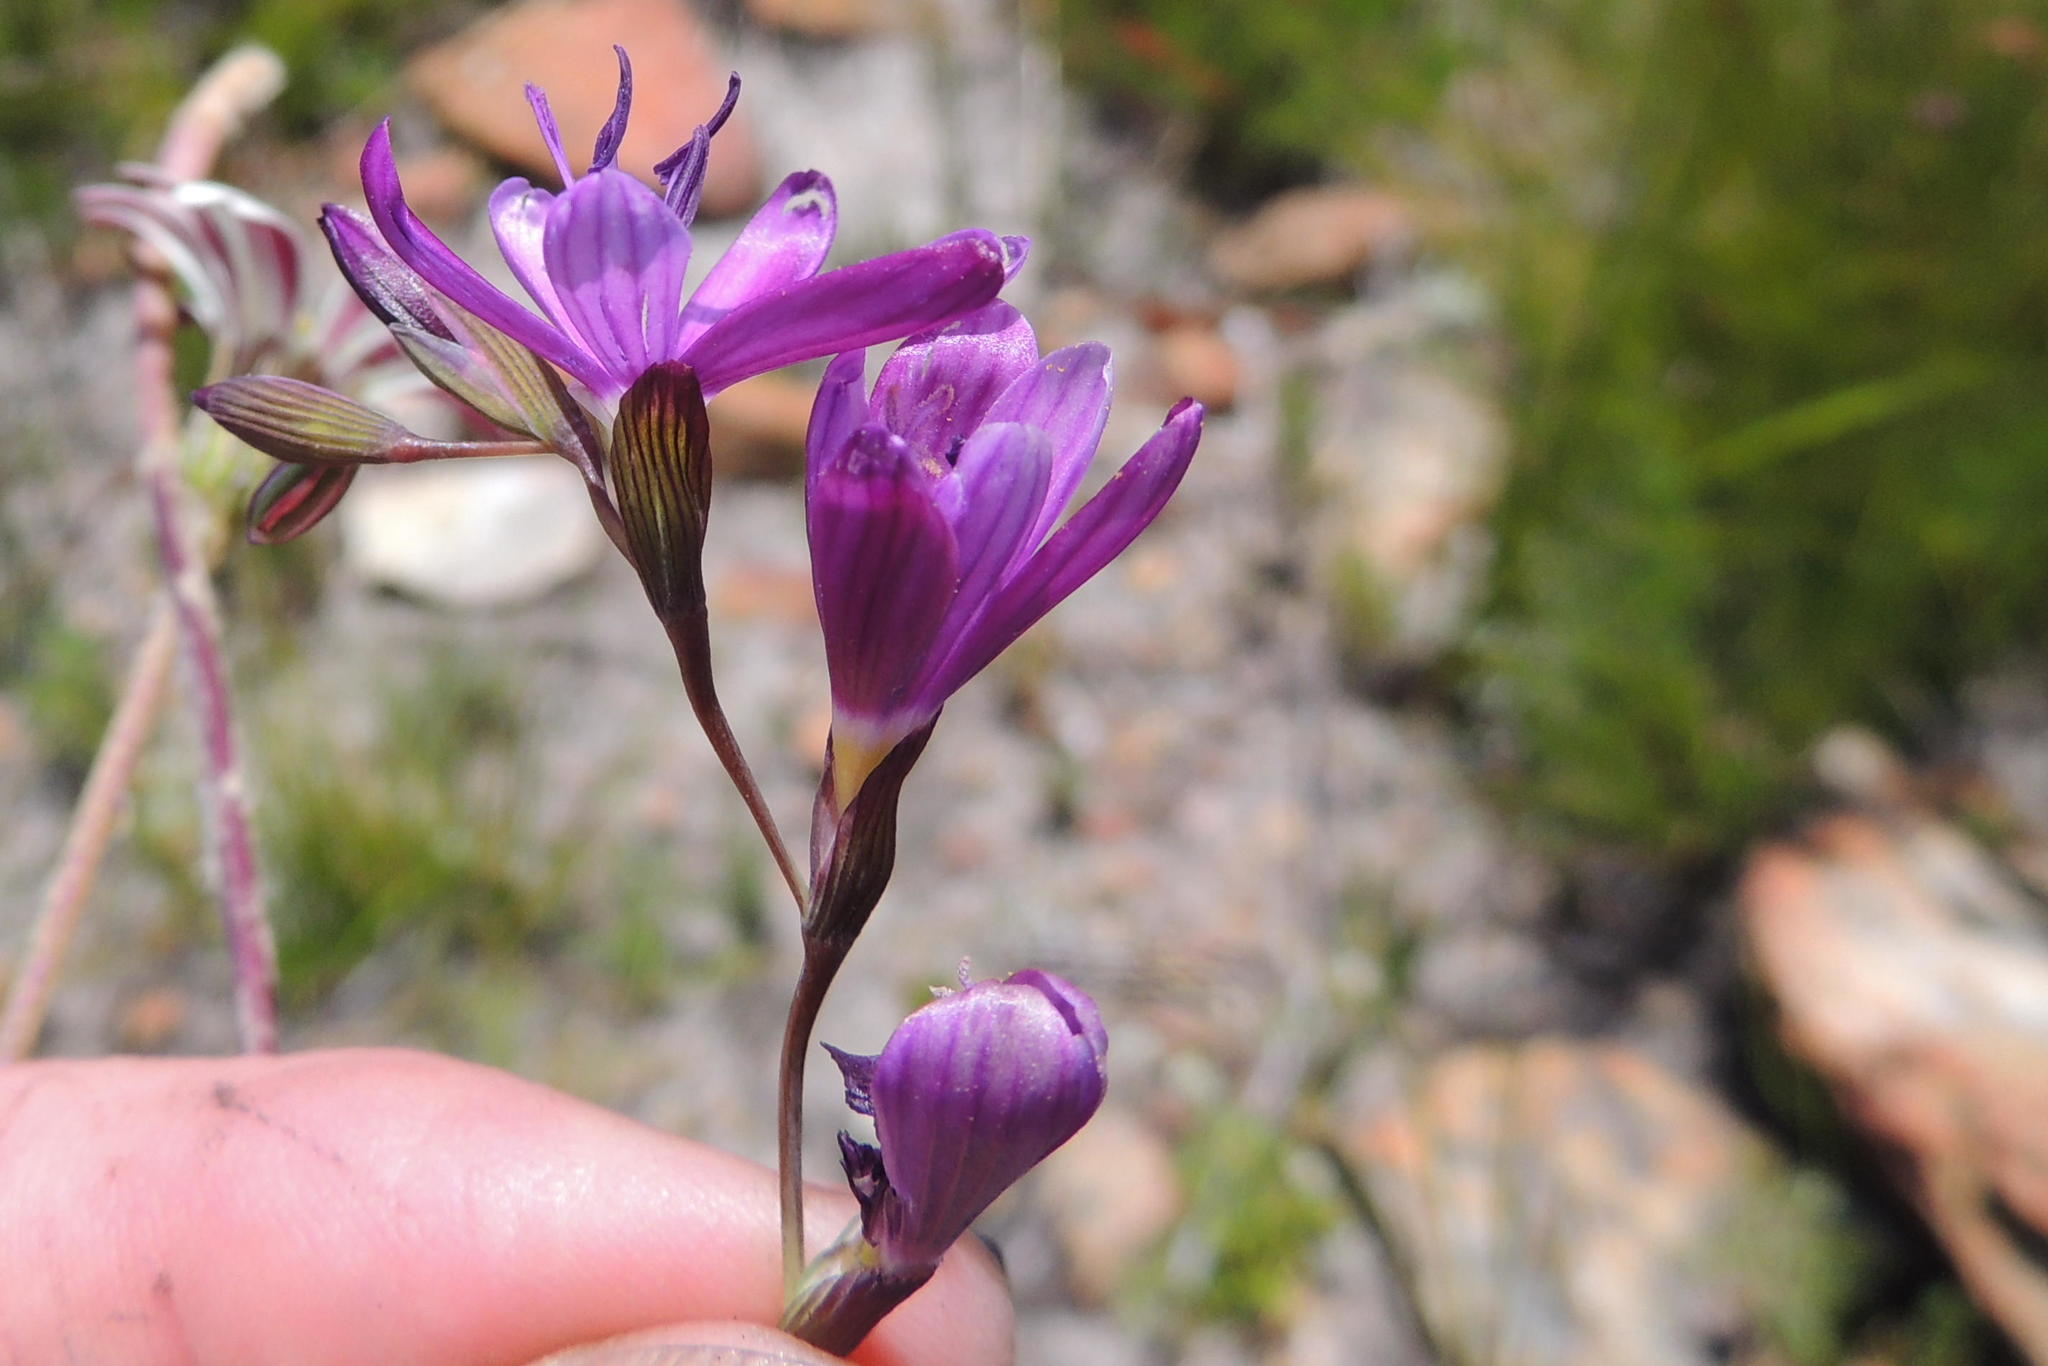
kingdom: Plantae
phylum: Tracheophyta
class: Liliopsida
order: Asparagales
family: Iridaceae
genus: Geissorhiza
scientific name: Geissorhiza burchellii
